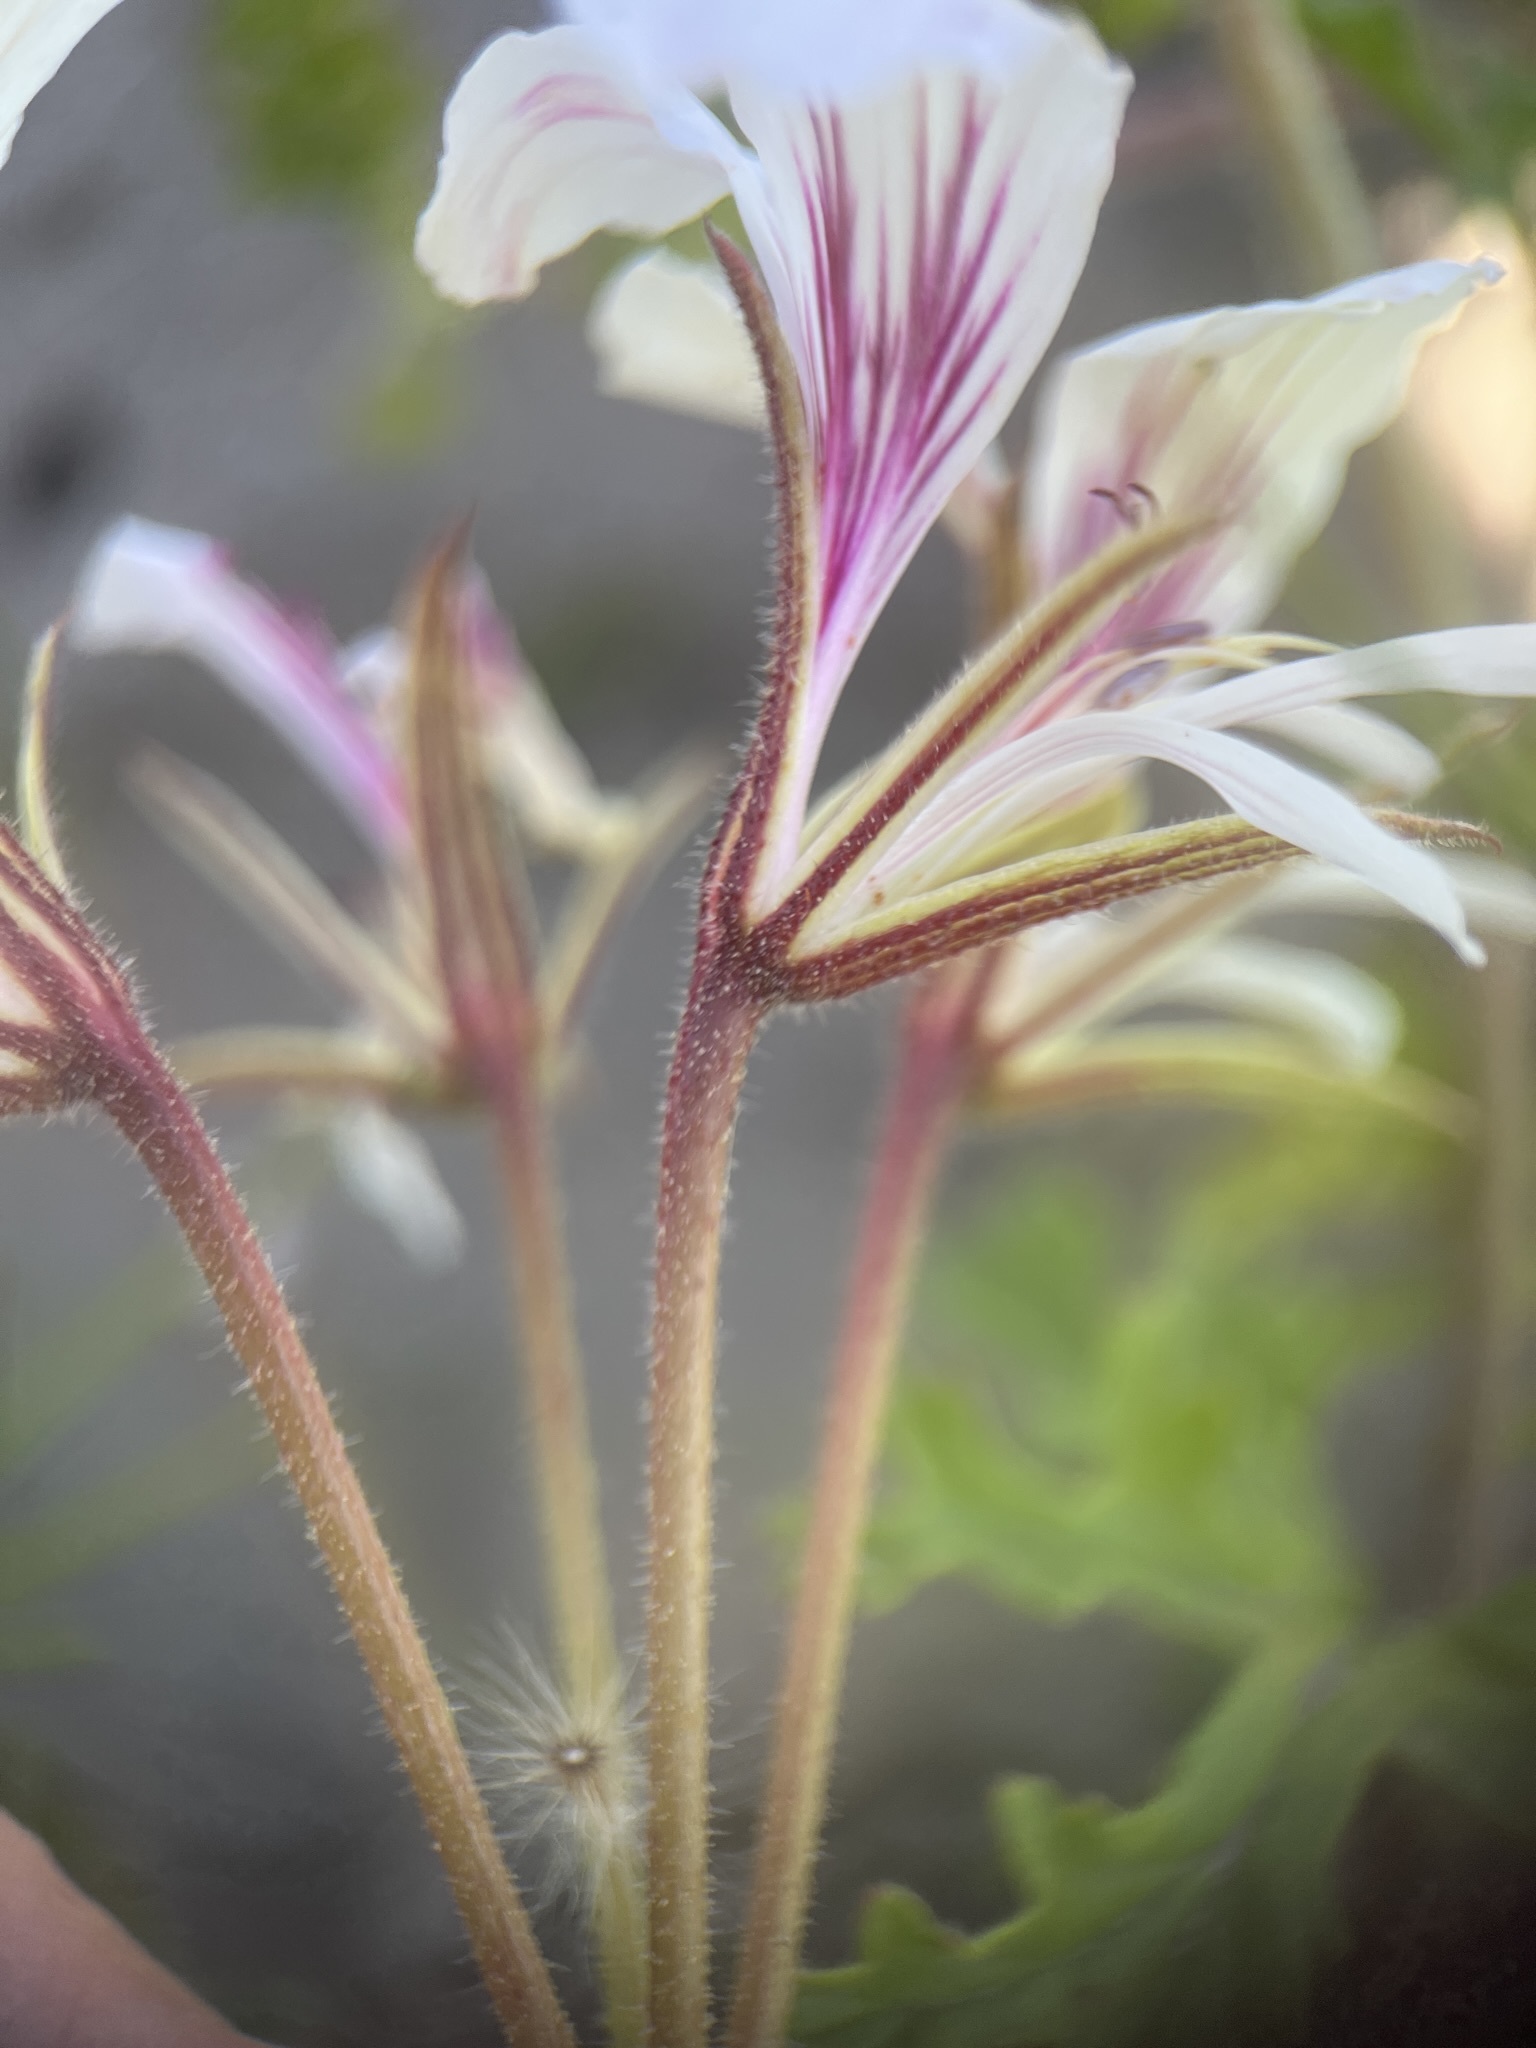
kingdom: Plantae
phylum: Tracheophyta
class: Magnoliopsida
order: Geraniales
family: Geraniaceae
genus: Pelargonium
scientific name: Pelargonium suburbanum
